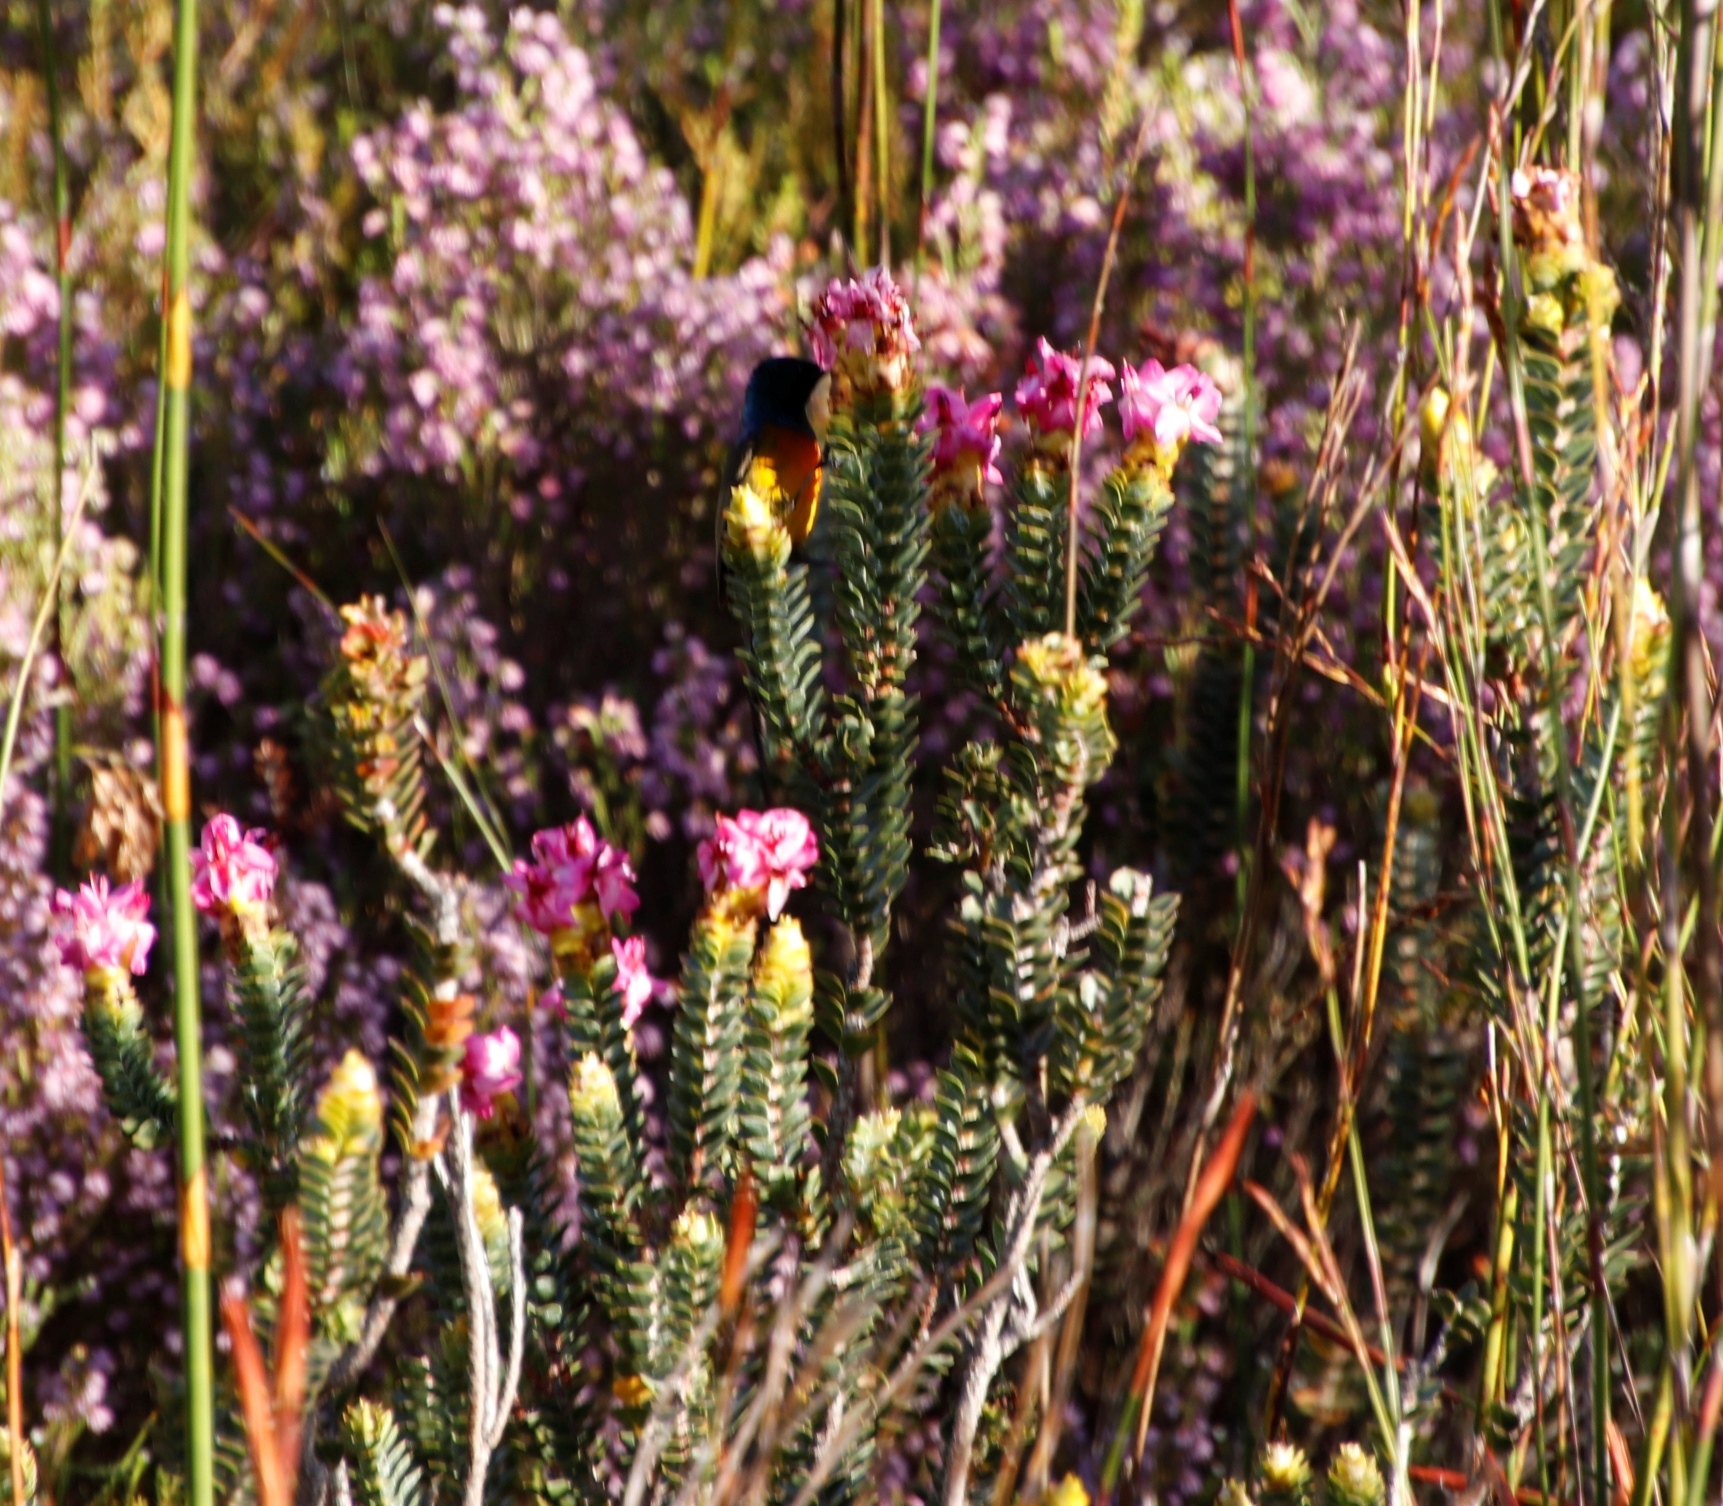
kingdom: Animalia
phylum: Chordata
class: Aves
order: Passeriformes
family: Nectariniidae
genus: Anthobaphes
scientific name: Anthobaphes violacea
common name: Orange-breasted sunbird
